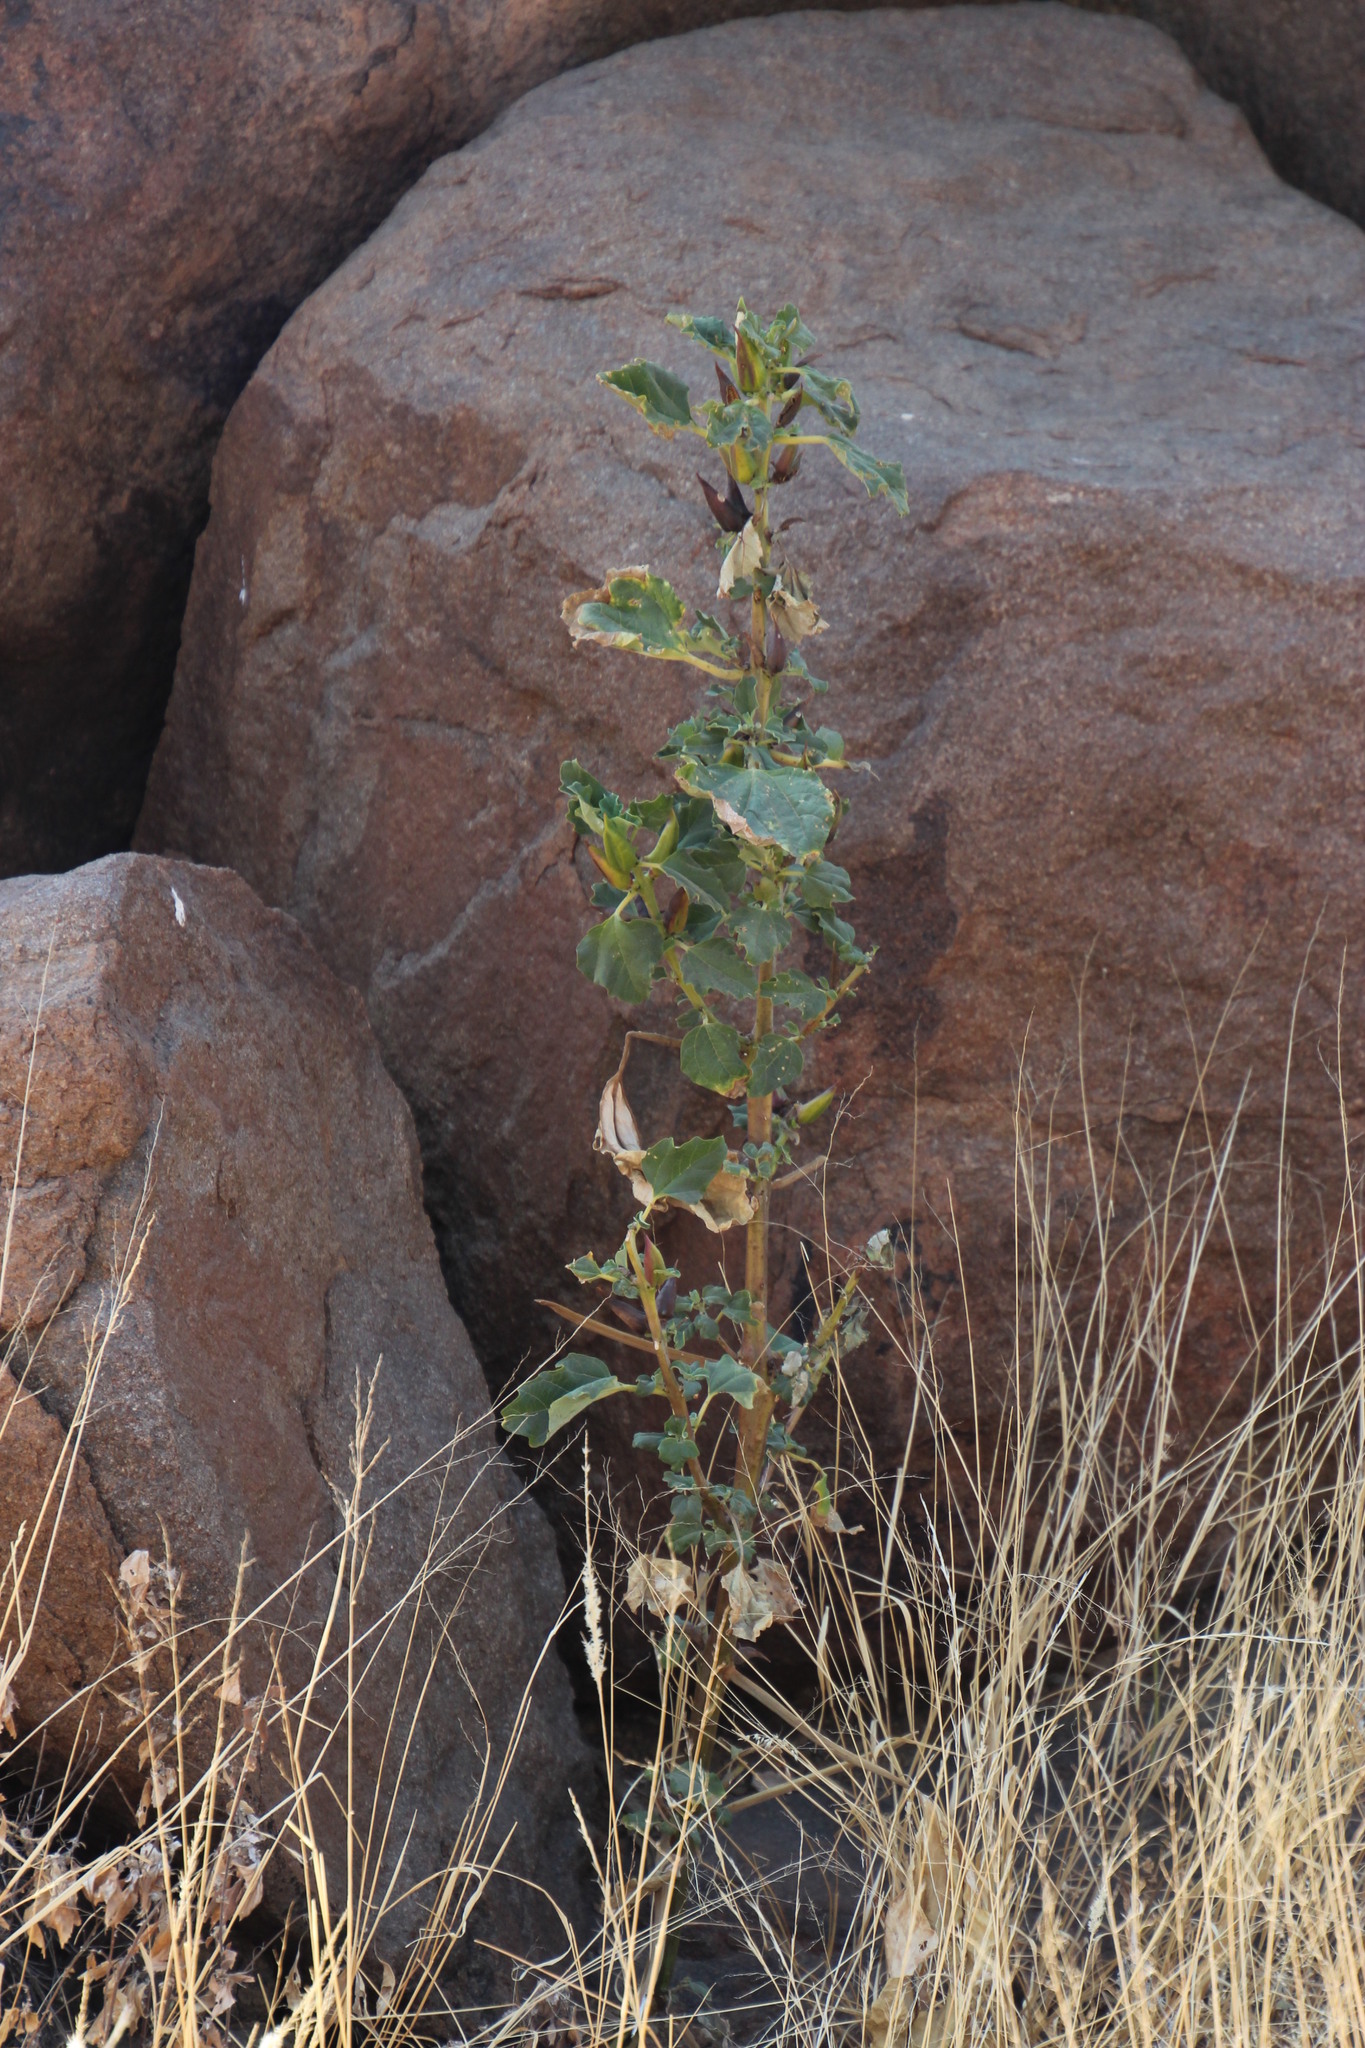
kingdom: Plantae
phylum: Tracheophyta
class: Magnoliopsida
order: Lamiales
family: Pedaliaceae
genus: Rogeria
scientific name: Rogeria longiflora
